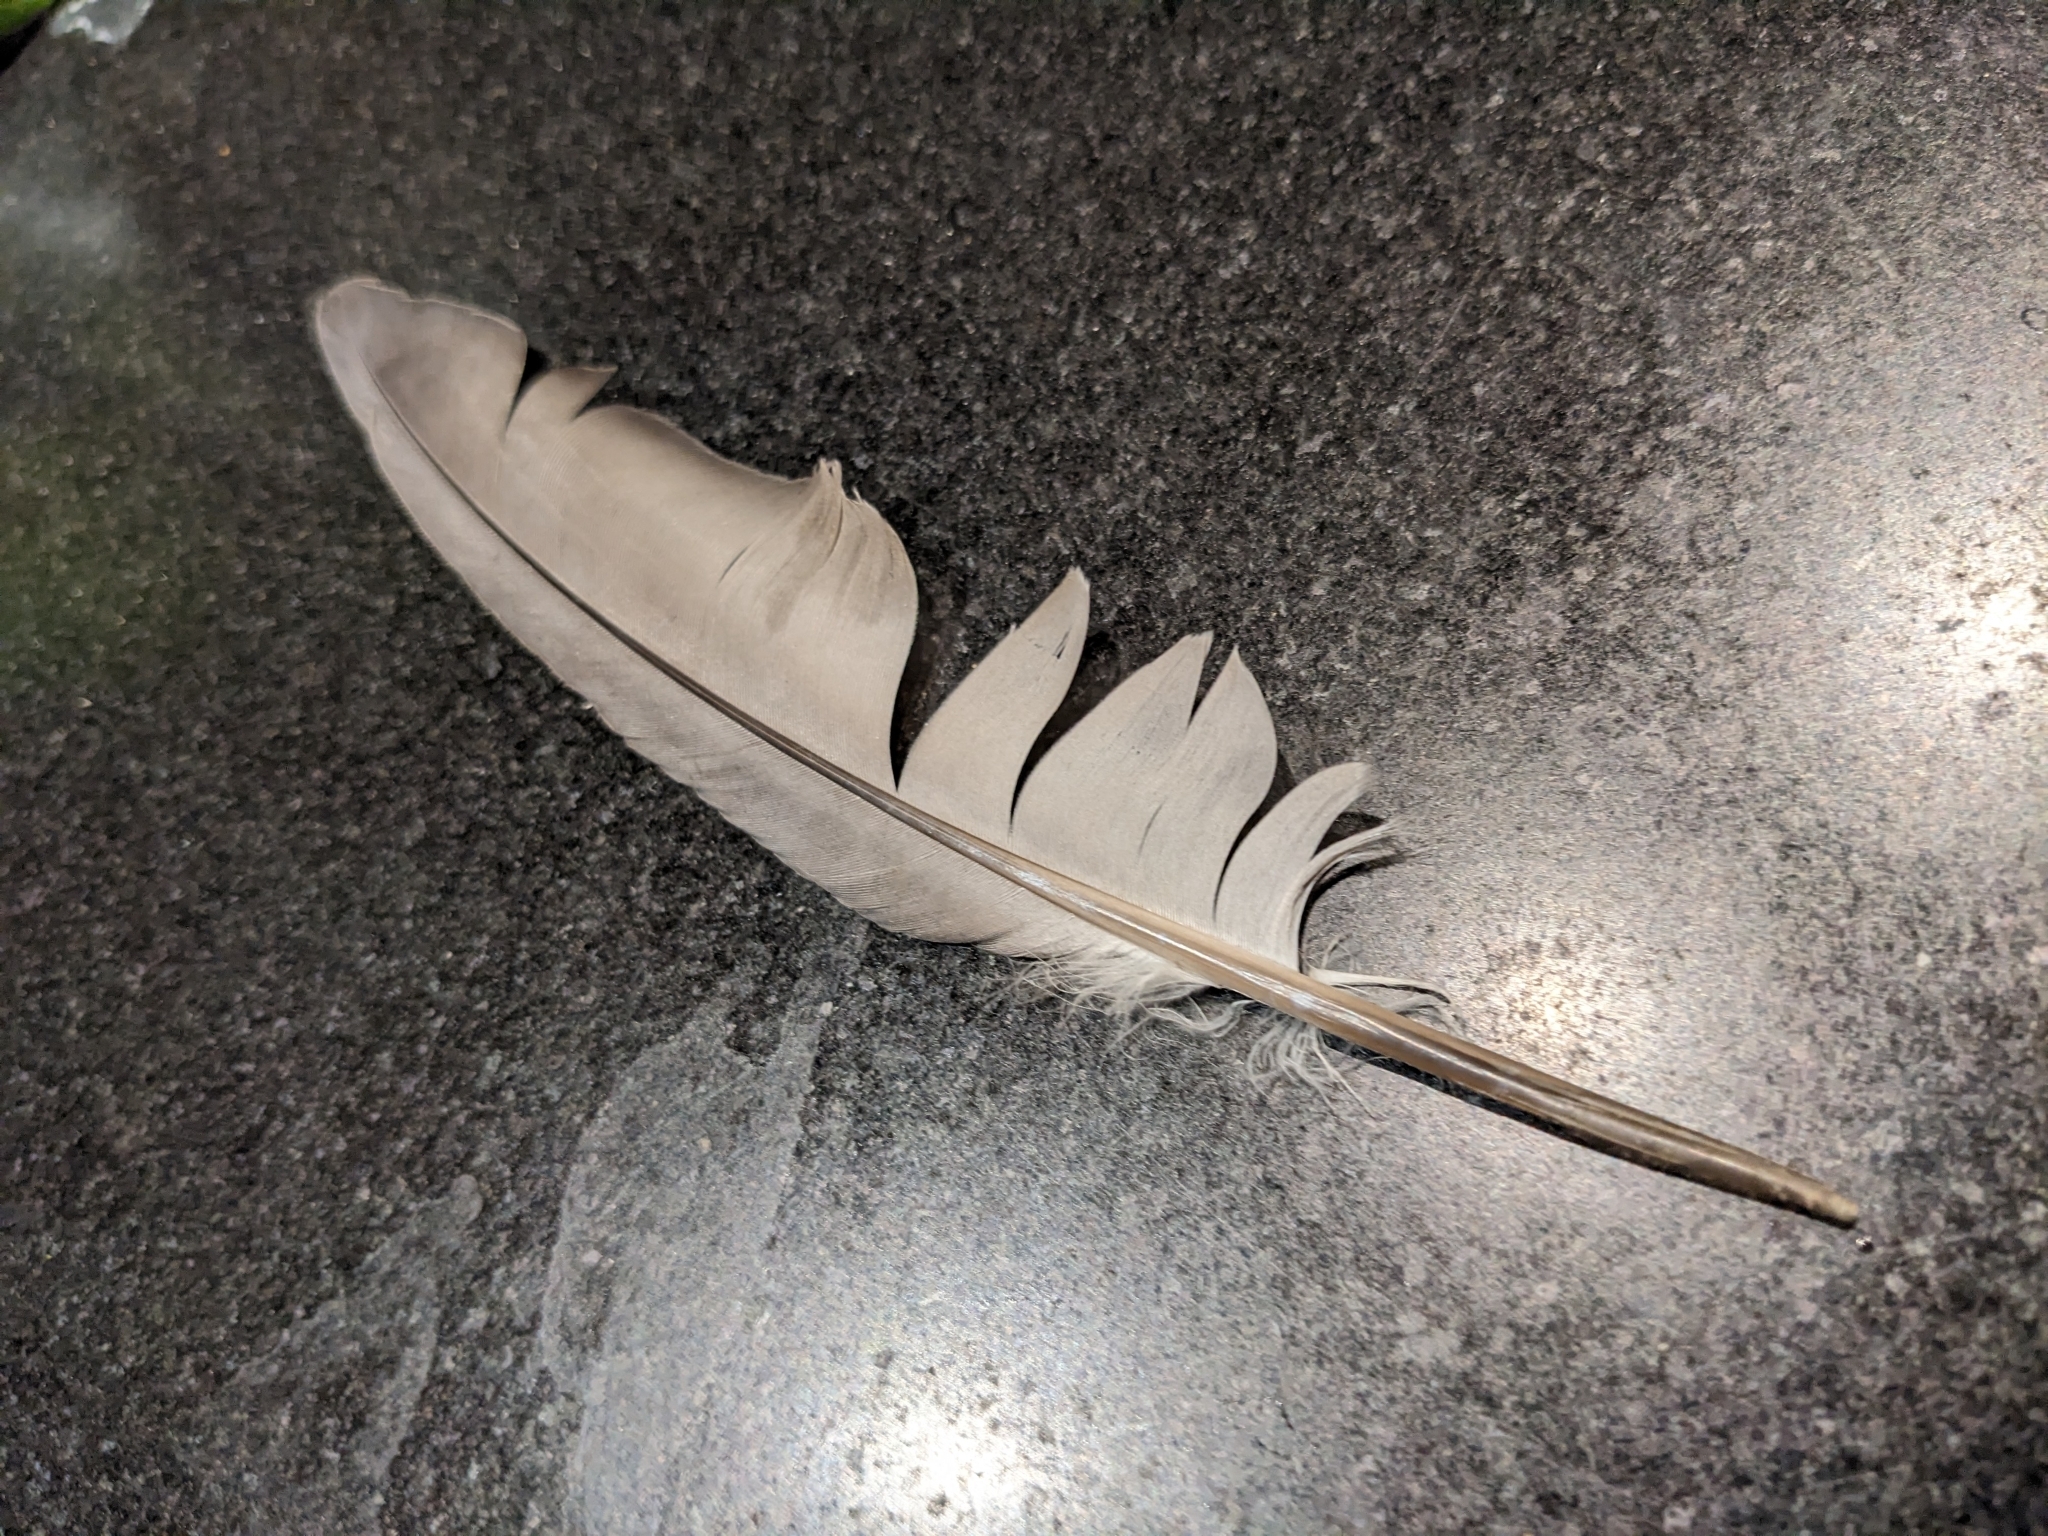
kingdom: Animalia
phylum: Chordata
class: Aves
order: Columbiformes
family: Columbidae
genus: Columba
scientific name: Columba livia
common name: Rock pigeon
